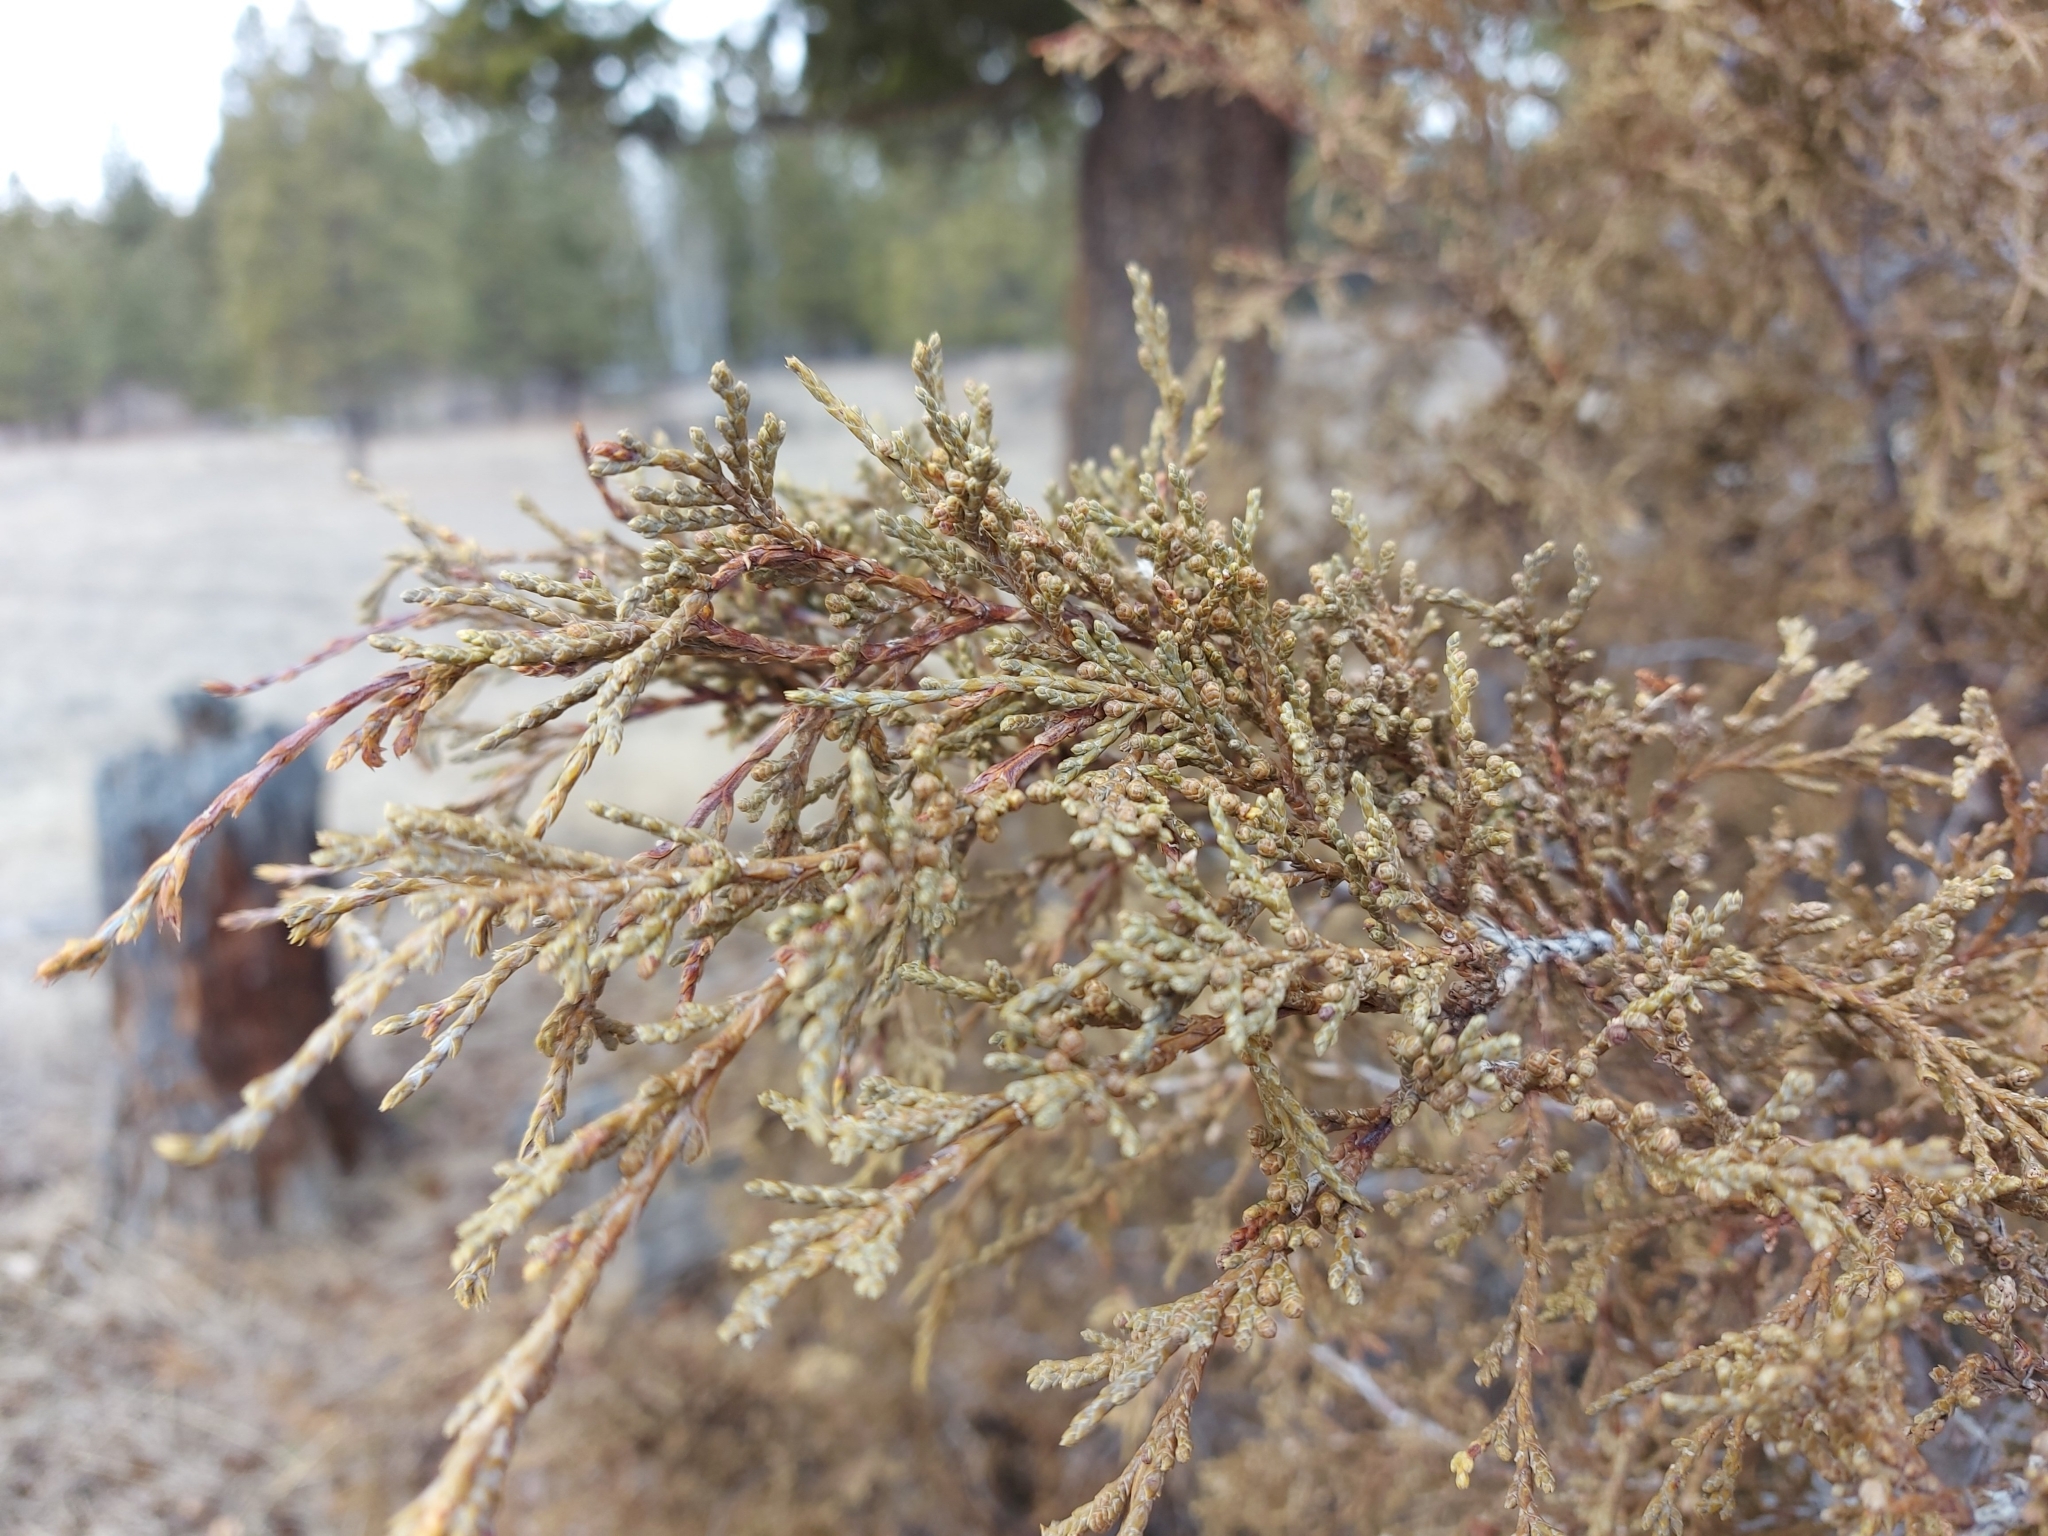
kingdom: Plantae
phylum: Tracheophyta
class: Pinopsida
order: Pinales
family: Cupressaceae
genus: Juniperus
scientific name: Juniperus scopulorum
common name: Rocky mountain juniper
